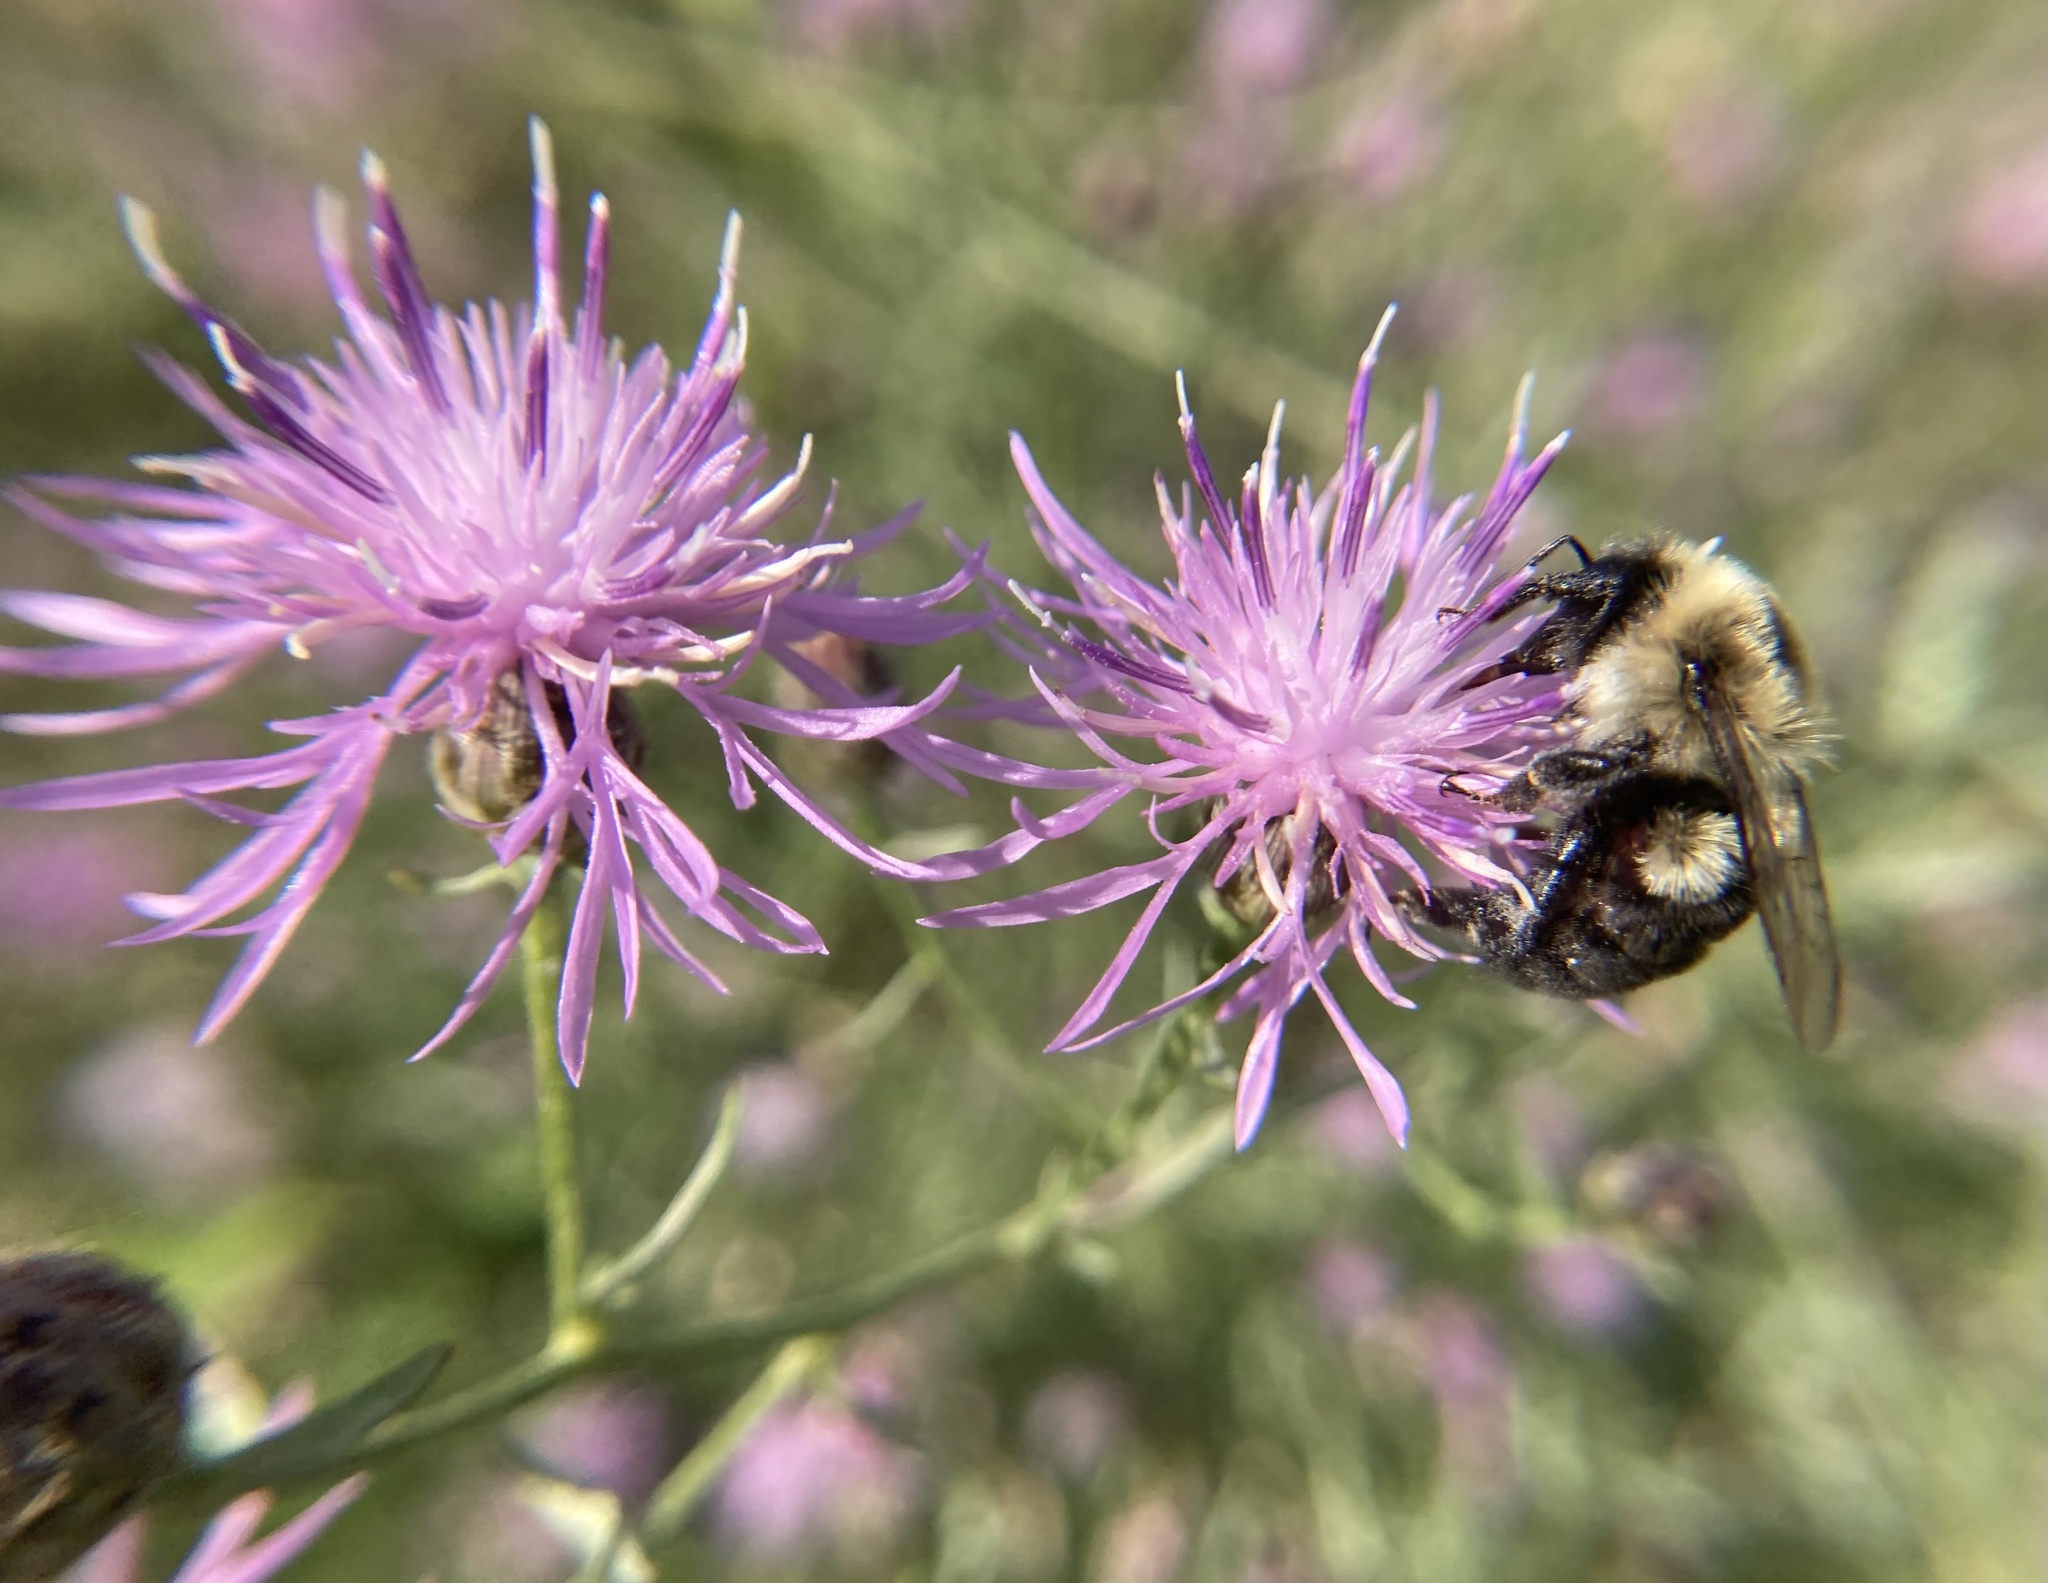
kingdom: Animalia
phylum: Arthropoda
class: Insecta
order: Hymenoptera
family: Apidae
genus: Bombus
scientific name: Bombus impatiens
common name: Common eastern bumble bee
